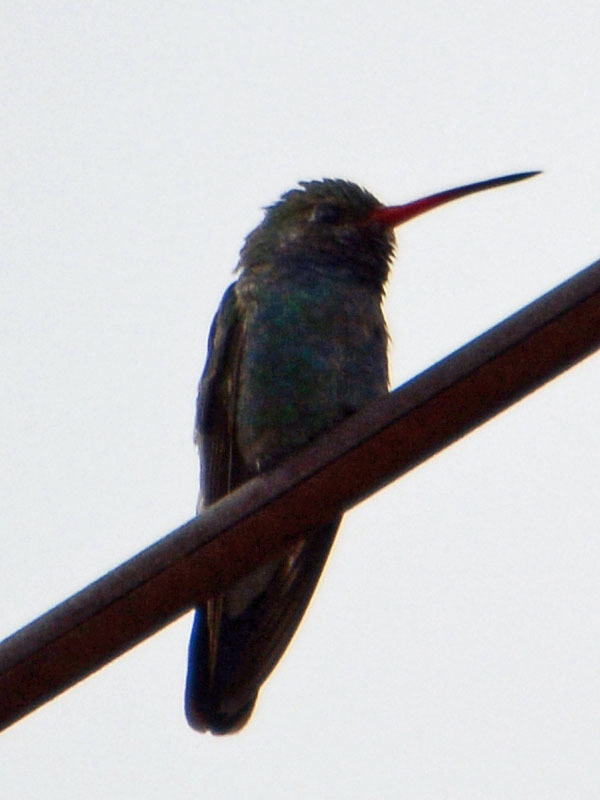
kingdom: Animalia
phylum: Chordata
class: Aves
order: Apodiformes
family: Trochilidae
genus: Cynanthus
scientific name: Cynanthus latirostris
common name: Broad-billed hummingbird
